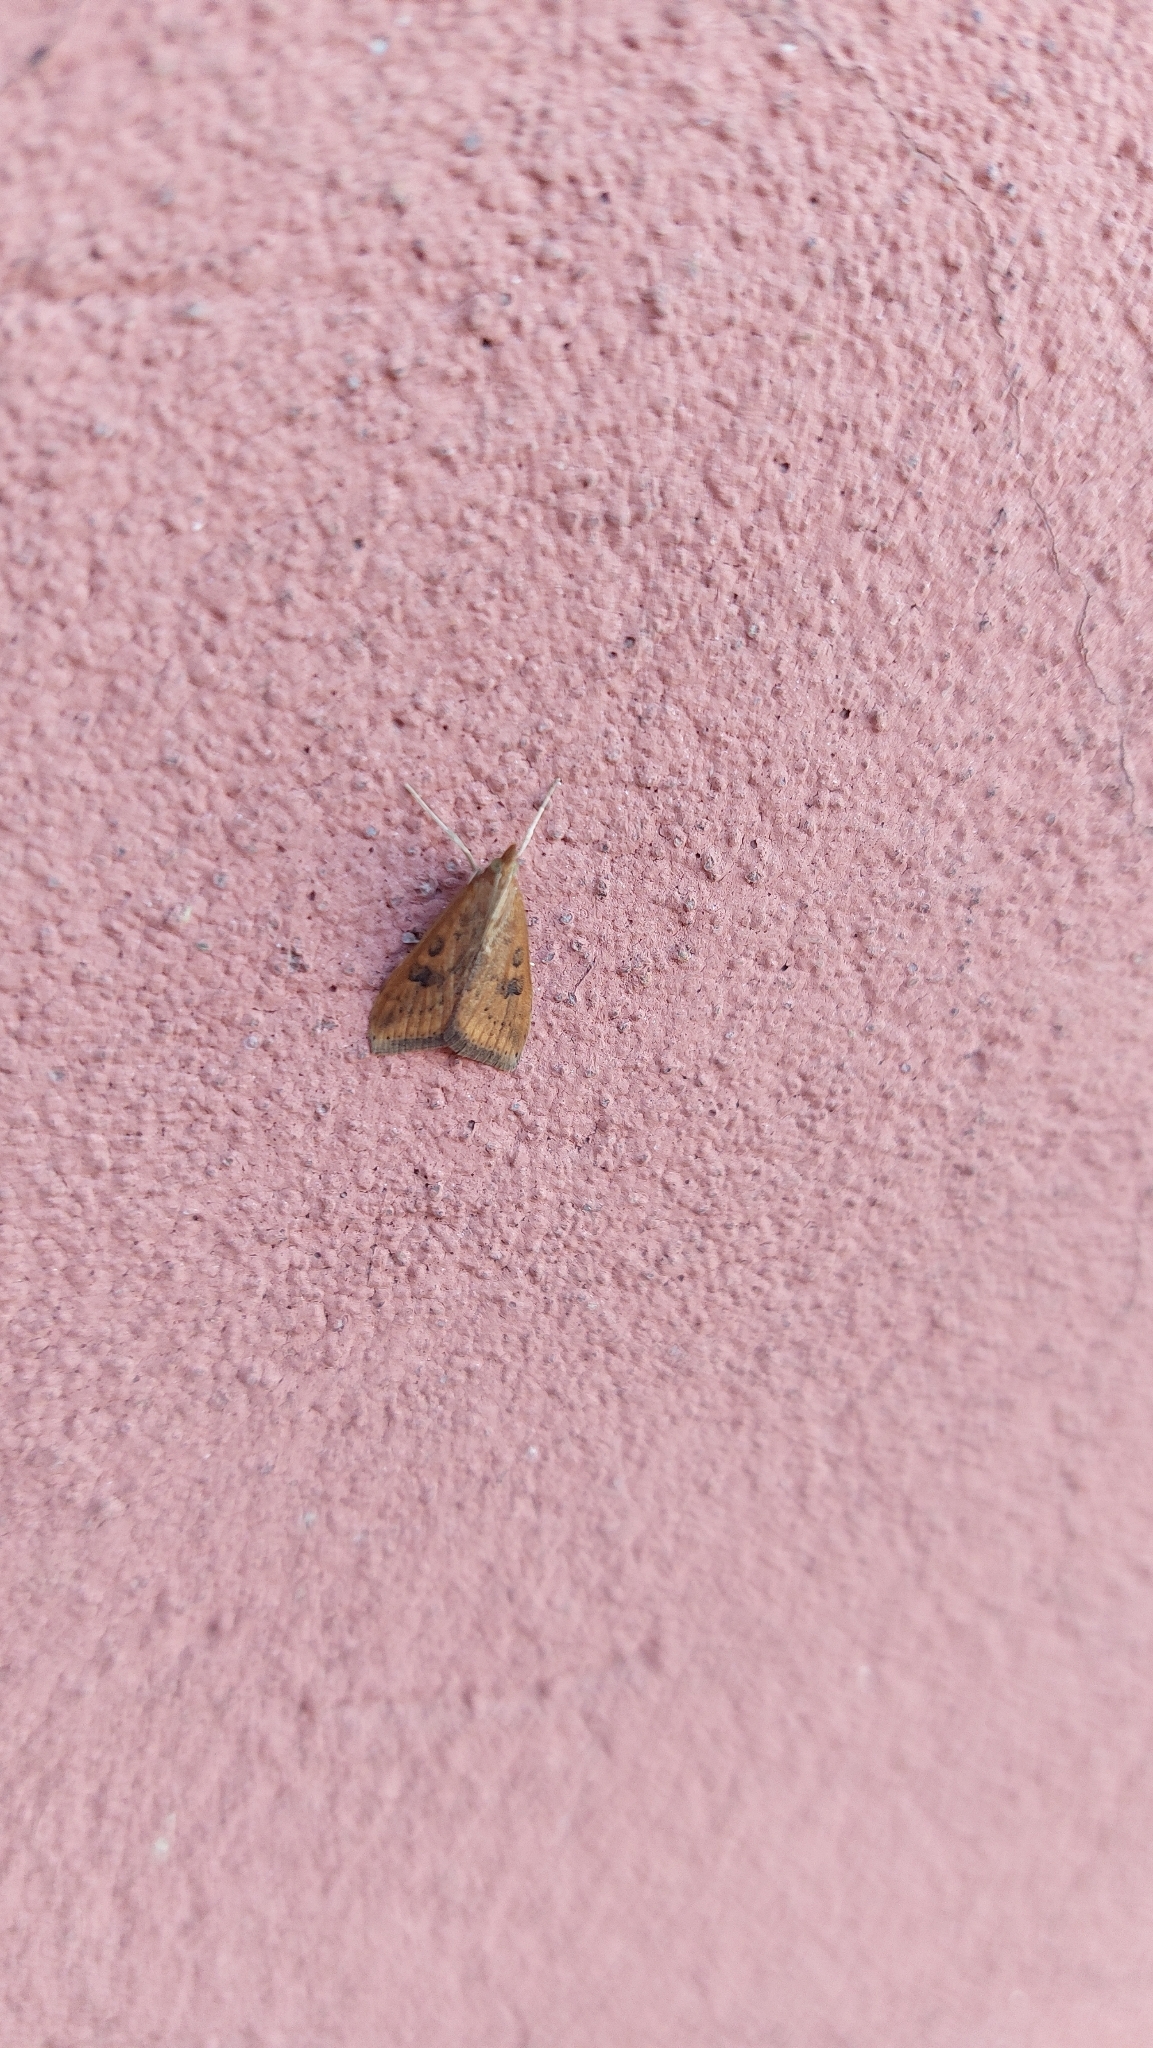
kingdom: Animalia
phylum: Arthropoda
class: Insecta
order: Lepidoptera
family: Crambidae
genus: Udea
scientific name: Udea ferrugalis
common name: Rusty dot
